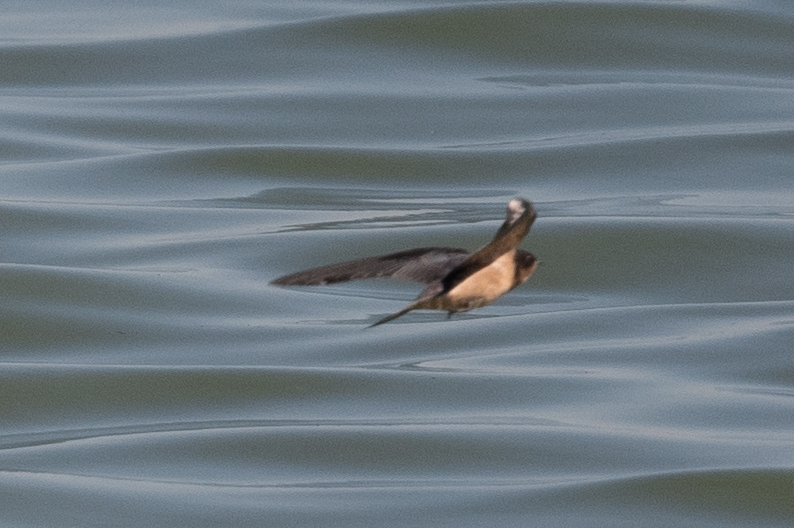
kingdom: Animalia
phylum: Chordata
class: Aves
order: Passeriformes
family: Hirundinidae
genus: Hirundo
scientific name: Hirundo rustica
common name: Barn swallow
